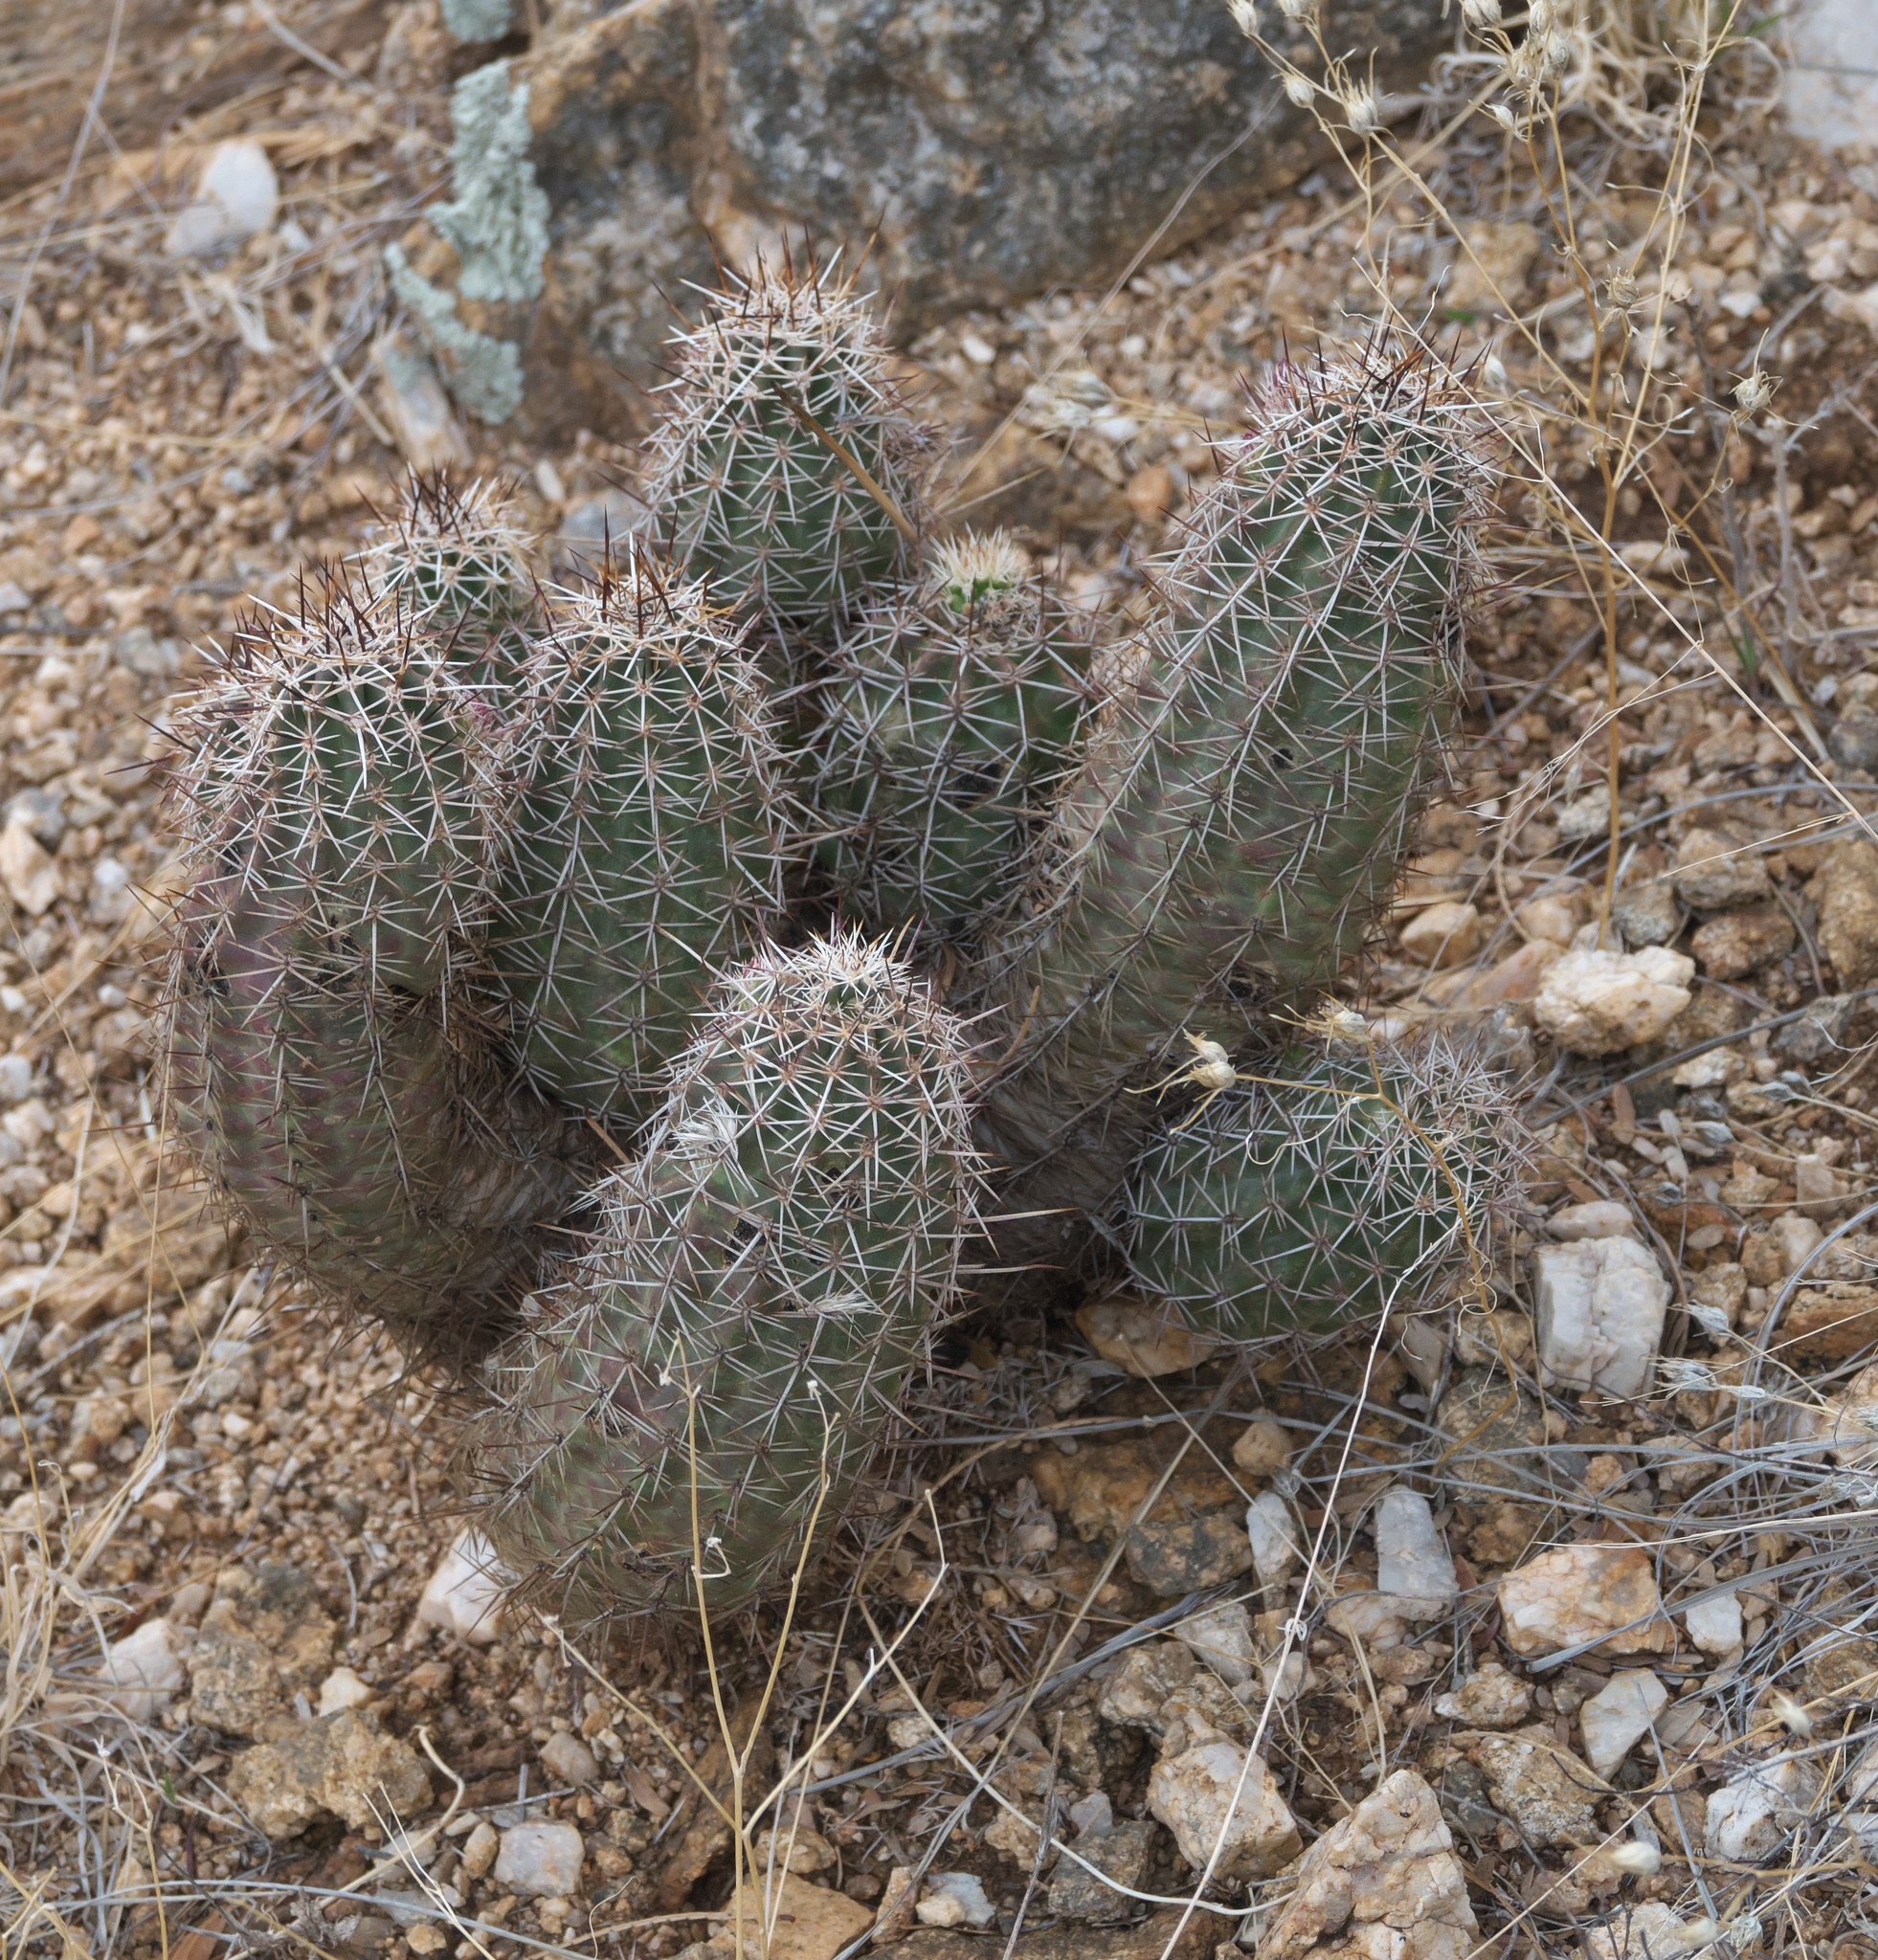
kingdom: Plantae
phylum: Tracheophyta
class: Magnoliopsida
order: Caryophyllales
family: Cactaceae
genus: Echinocereus
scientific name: Echinocereus fasciculatus
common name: Bundle hedgehog
